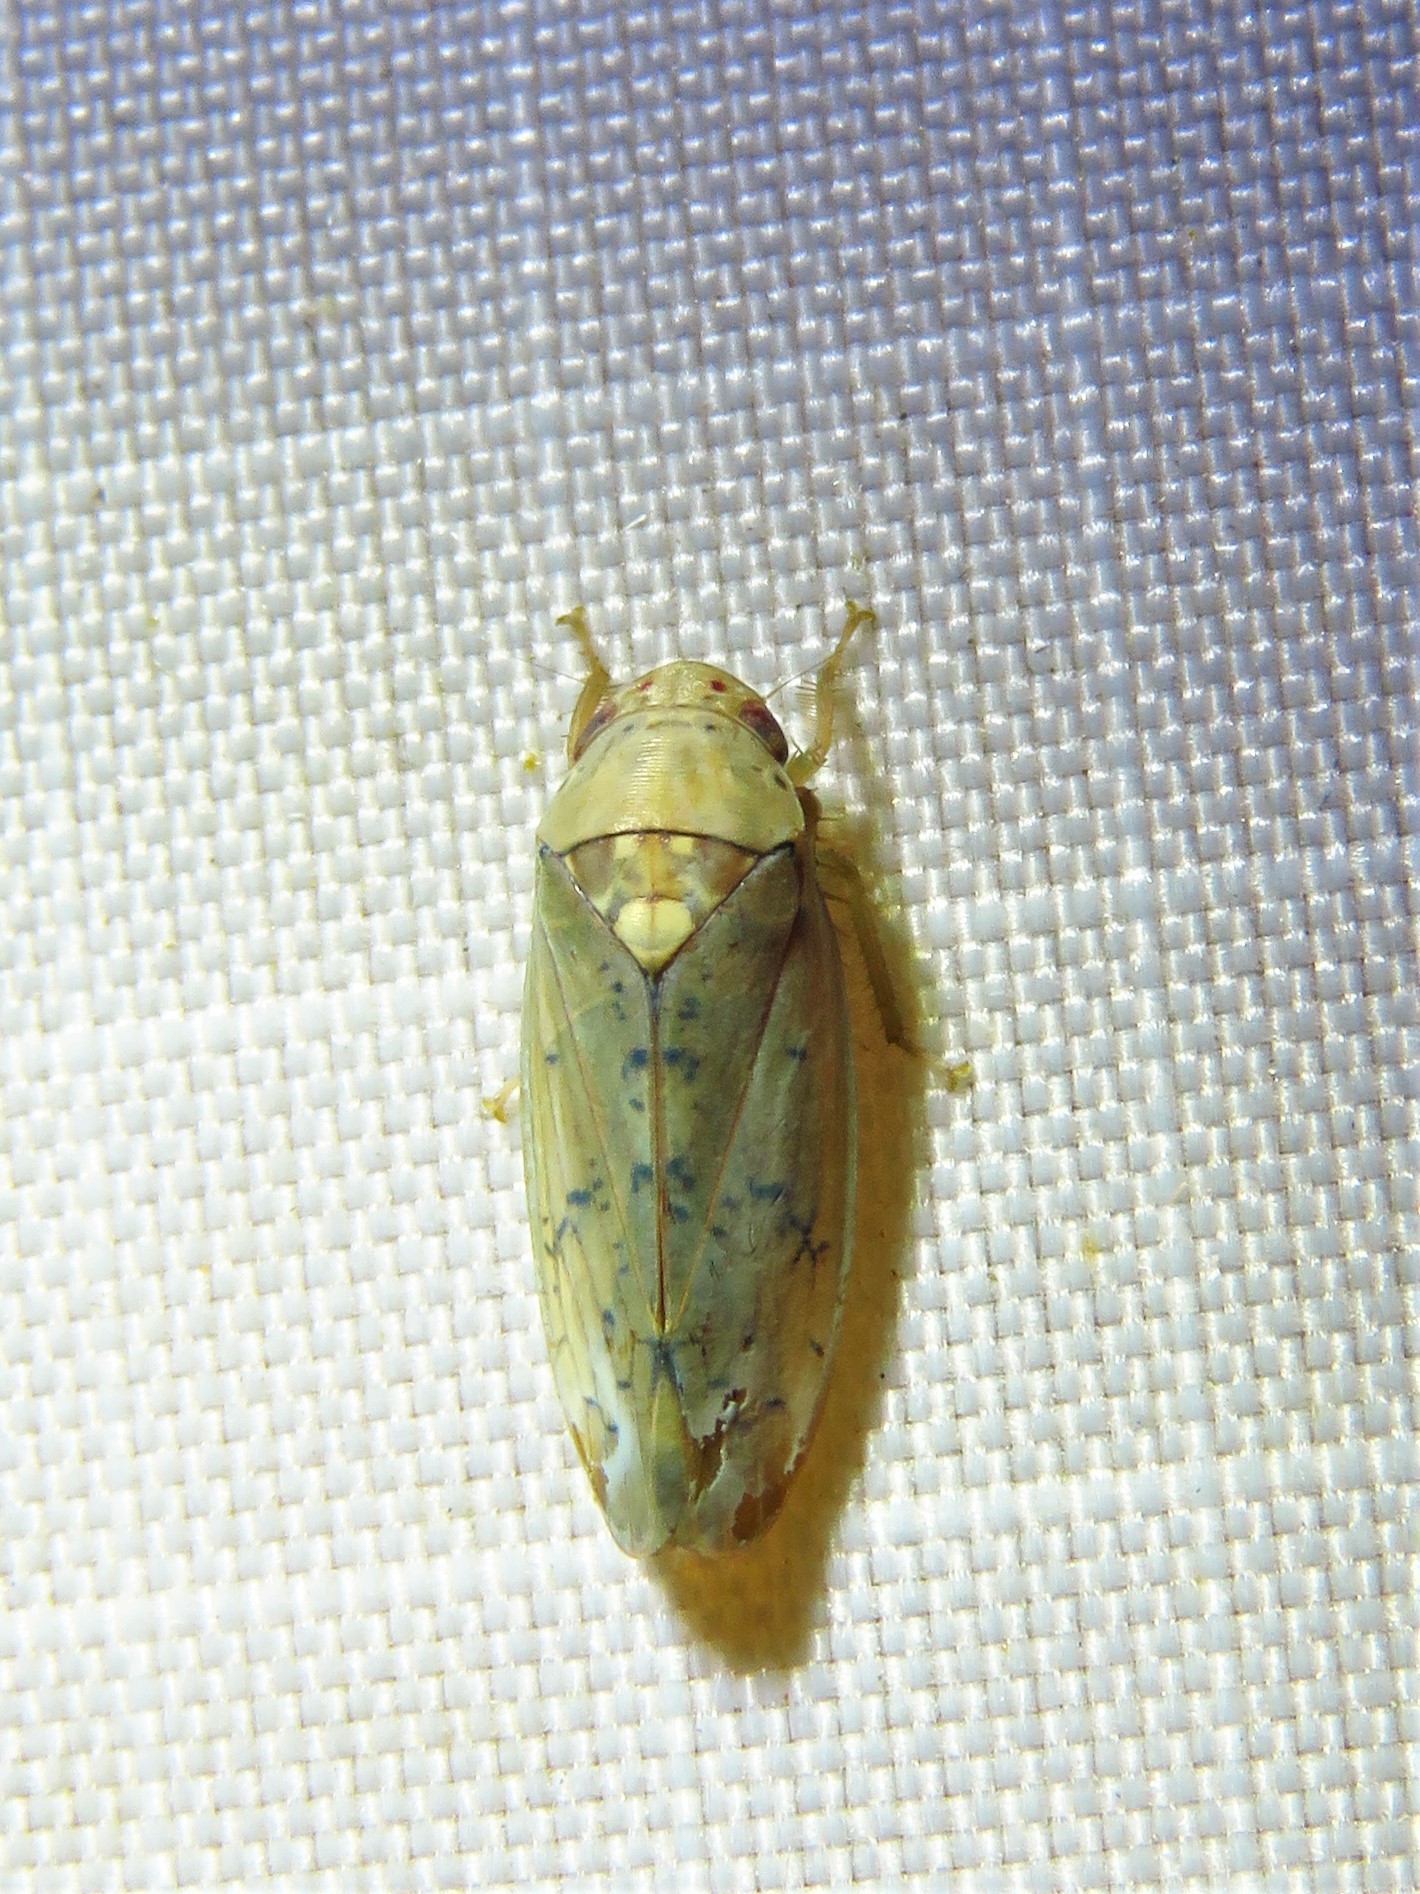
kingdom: Animalia
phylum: Arthropoda
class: Insecta
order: Hemiptera
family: Cicadellidae
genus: Ponana
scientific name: Ponana quadralaba
